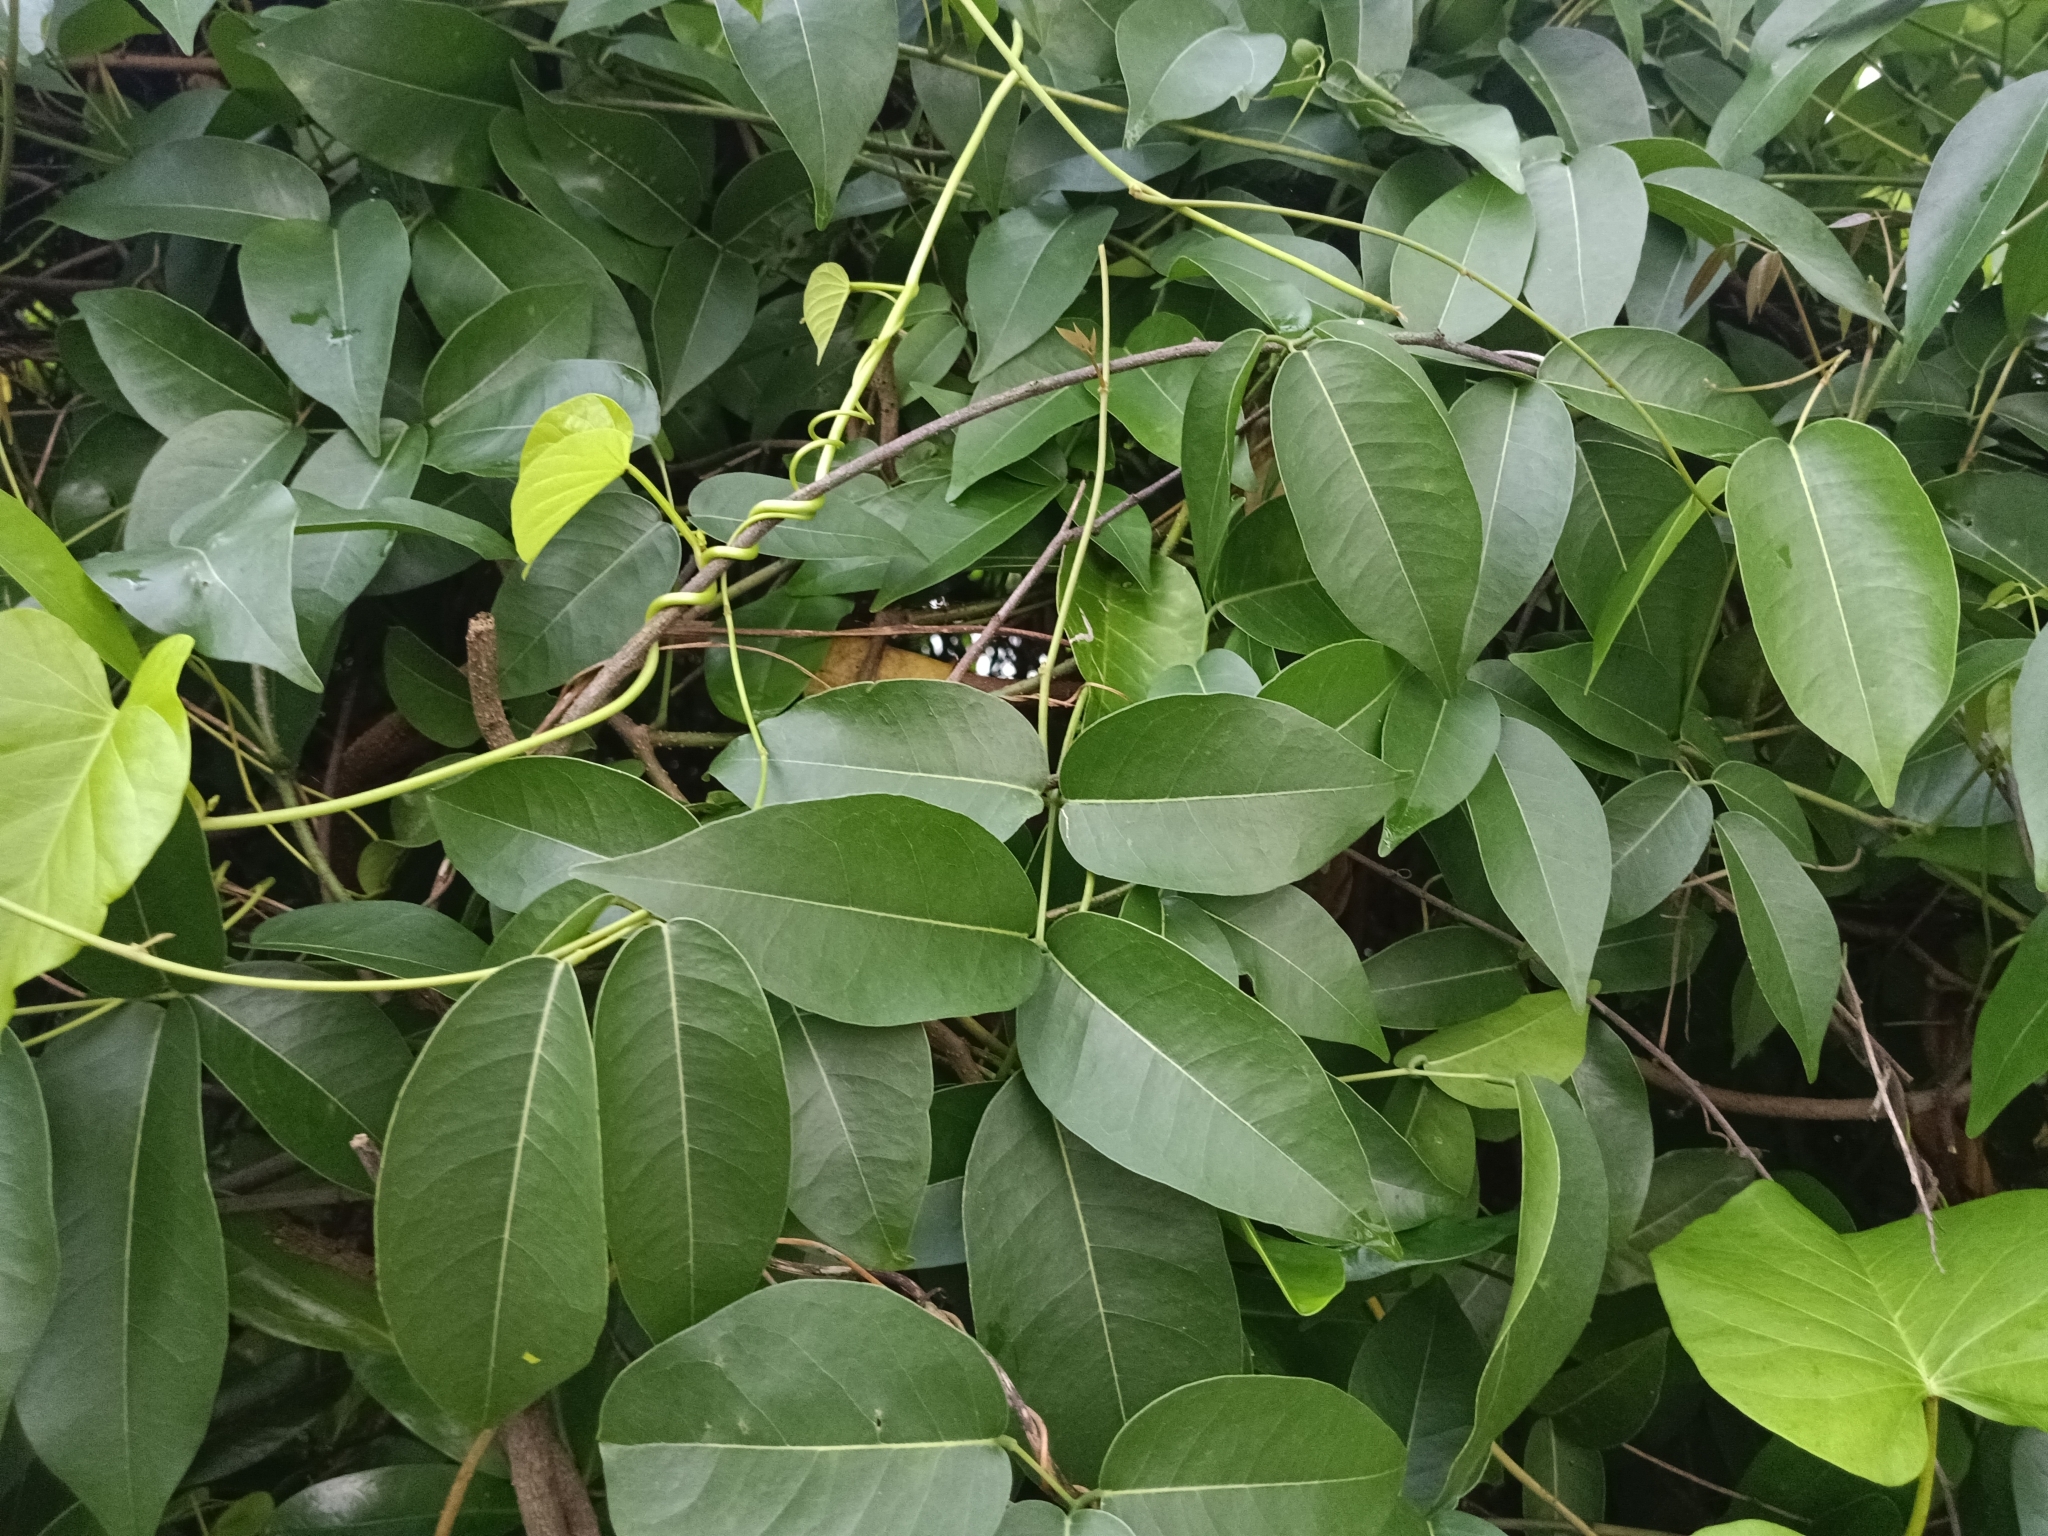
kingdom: Plantae
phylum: Tracheophyta
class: Magnoliopsida
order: Fabales
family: Fabaceae
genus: Derris
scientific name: Derris trifoliata
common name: Three-leaf derris
